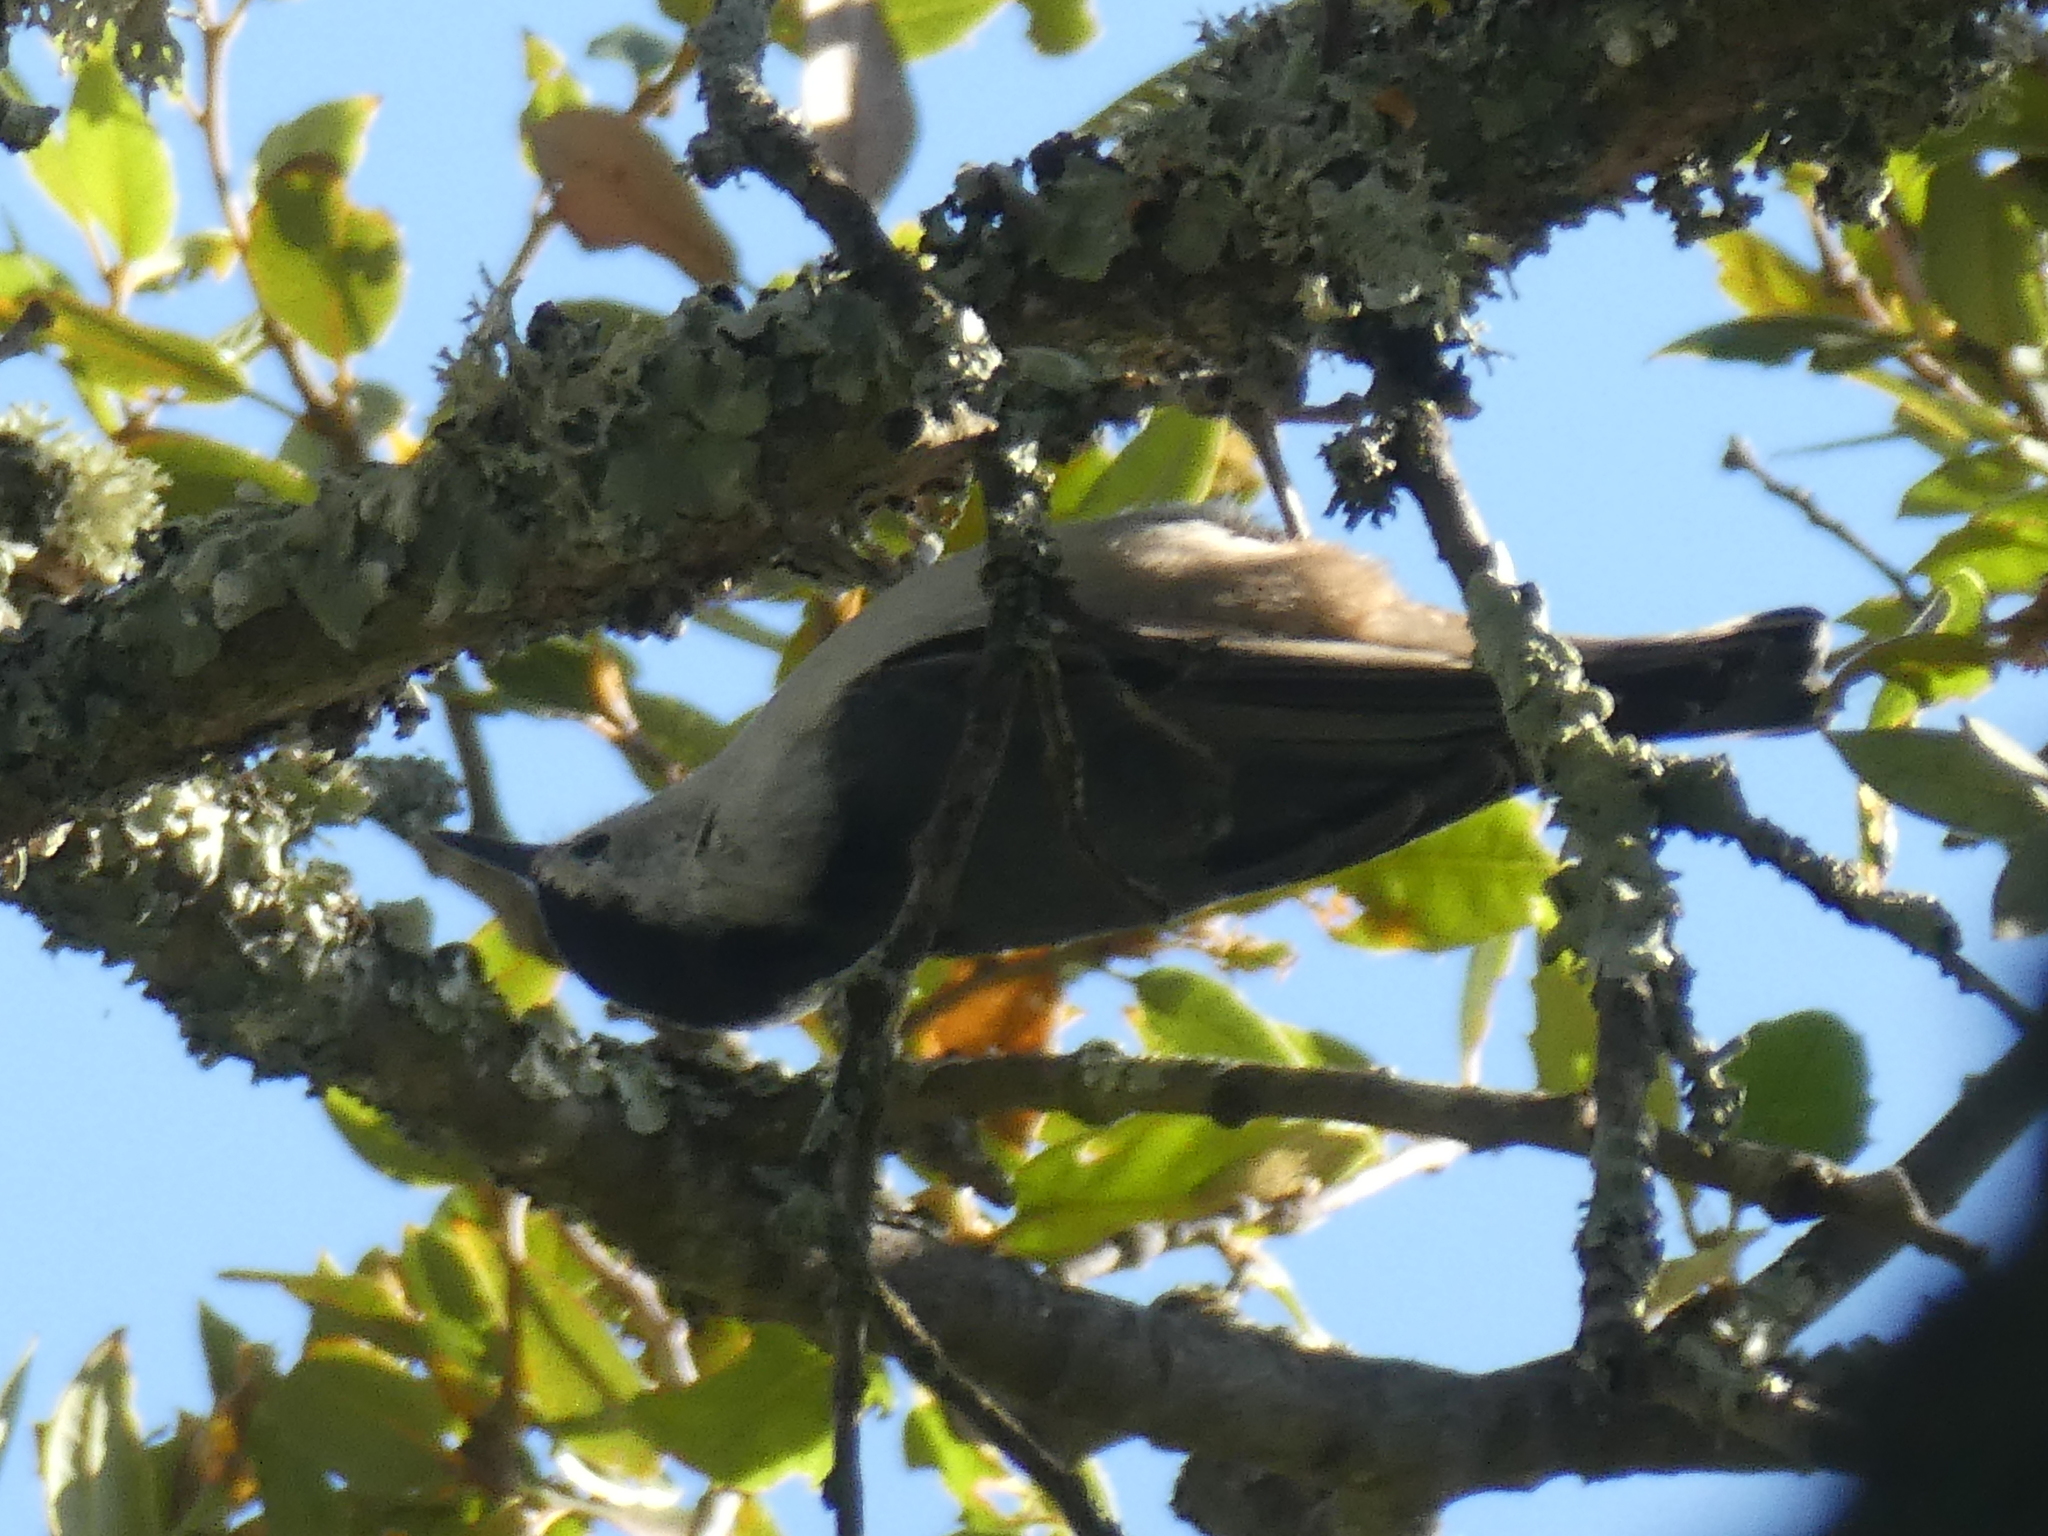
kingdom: Animalia
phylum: Chordata
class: Aves
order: Passeriformes
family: Sittidae
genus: Sitta
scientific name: Sitta carolinensis
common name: White-breasted nuthatch
